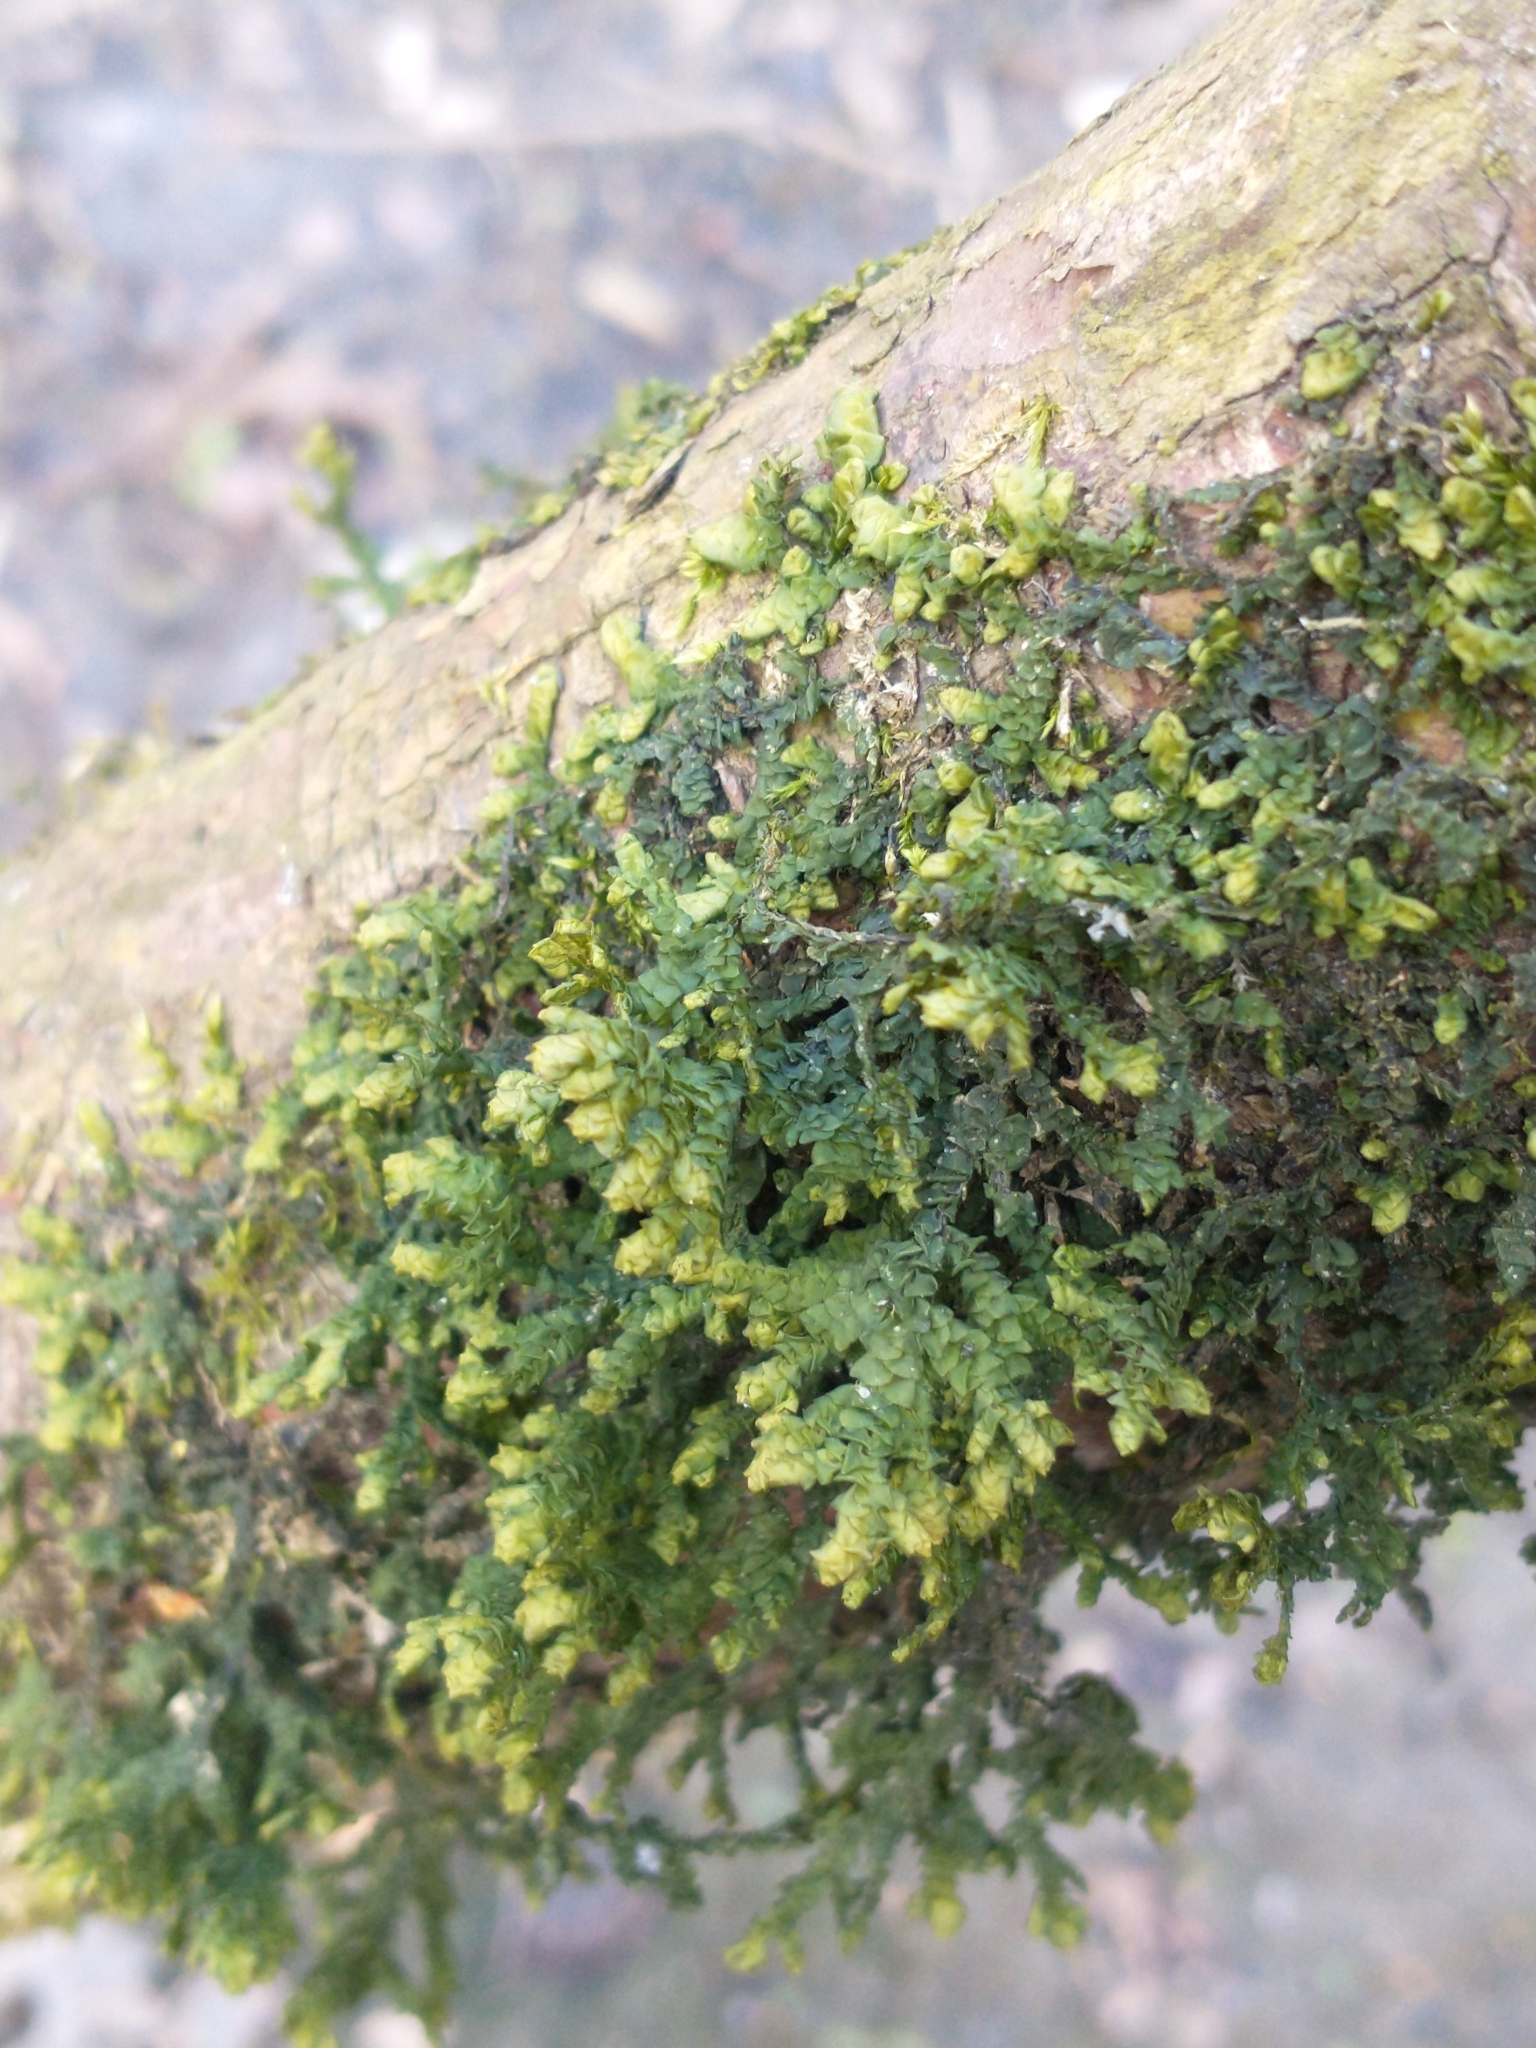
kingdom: Plantae
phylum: Marchantiophyta
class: Jungermanniopsida
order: Porellales
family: Porellaceae
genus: Porella
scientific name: Porella platyphylla
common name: Wall scalewort
